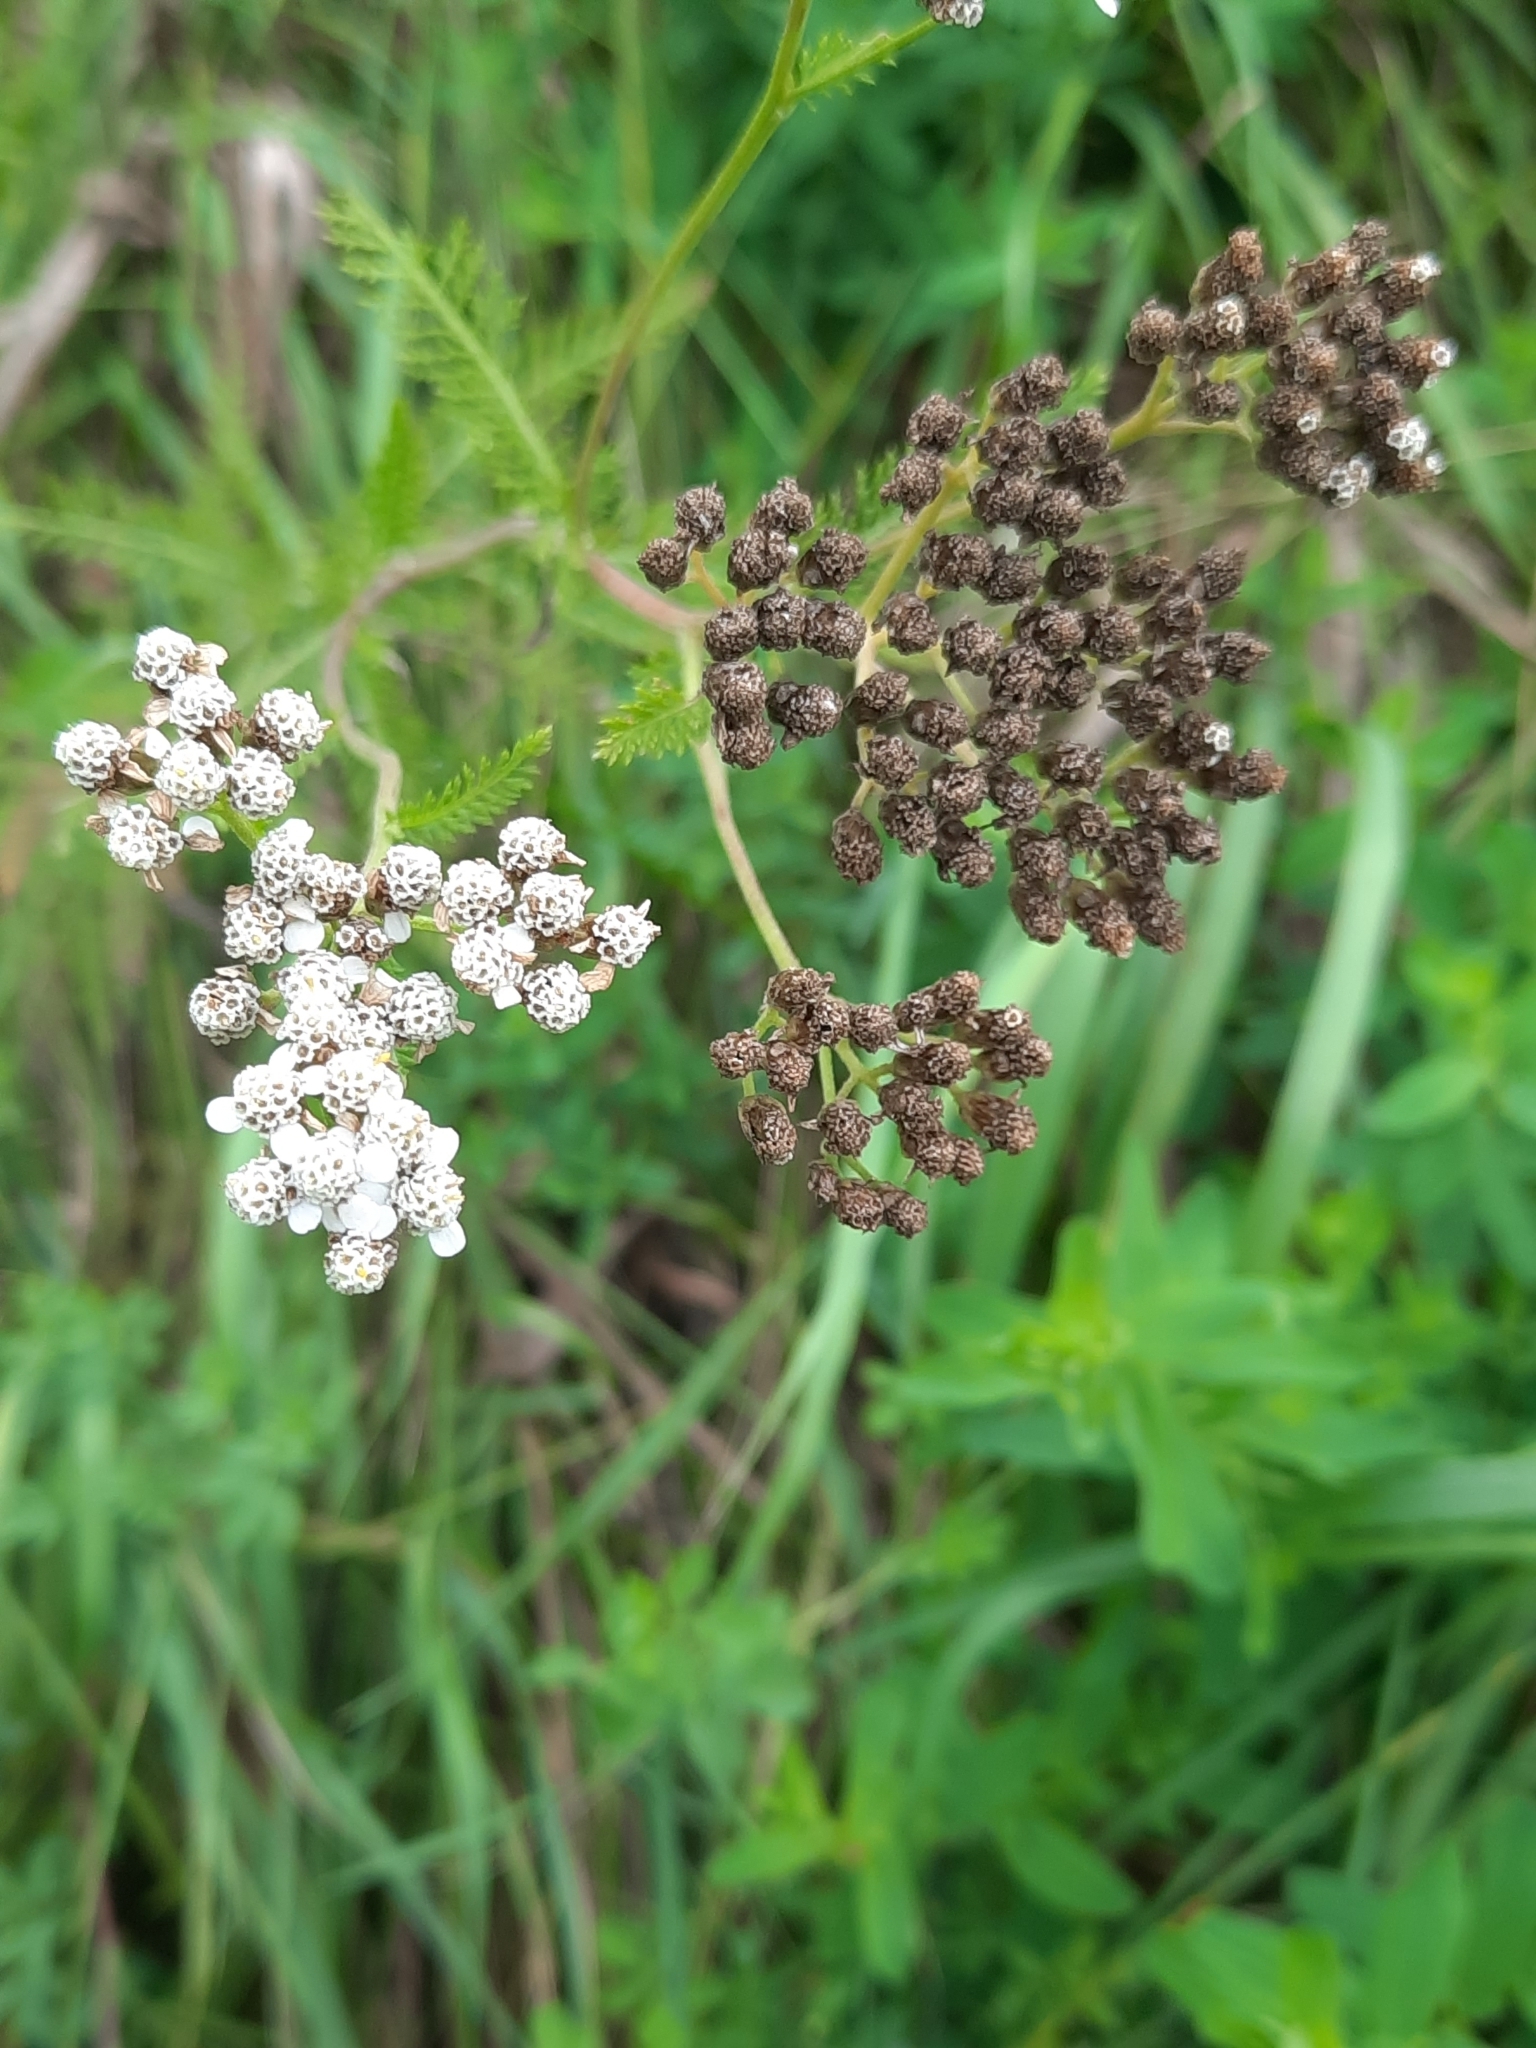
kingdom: Plantae
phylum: Tracheophyta
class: Magnoliopsida
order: Asterales
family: Asteraceae
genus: Achillea
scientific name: Achillea millefolium
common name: Yarrow
